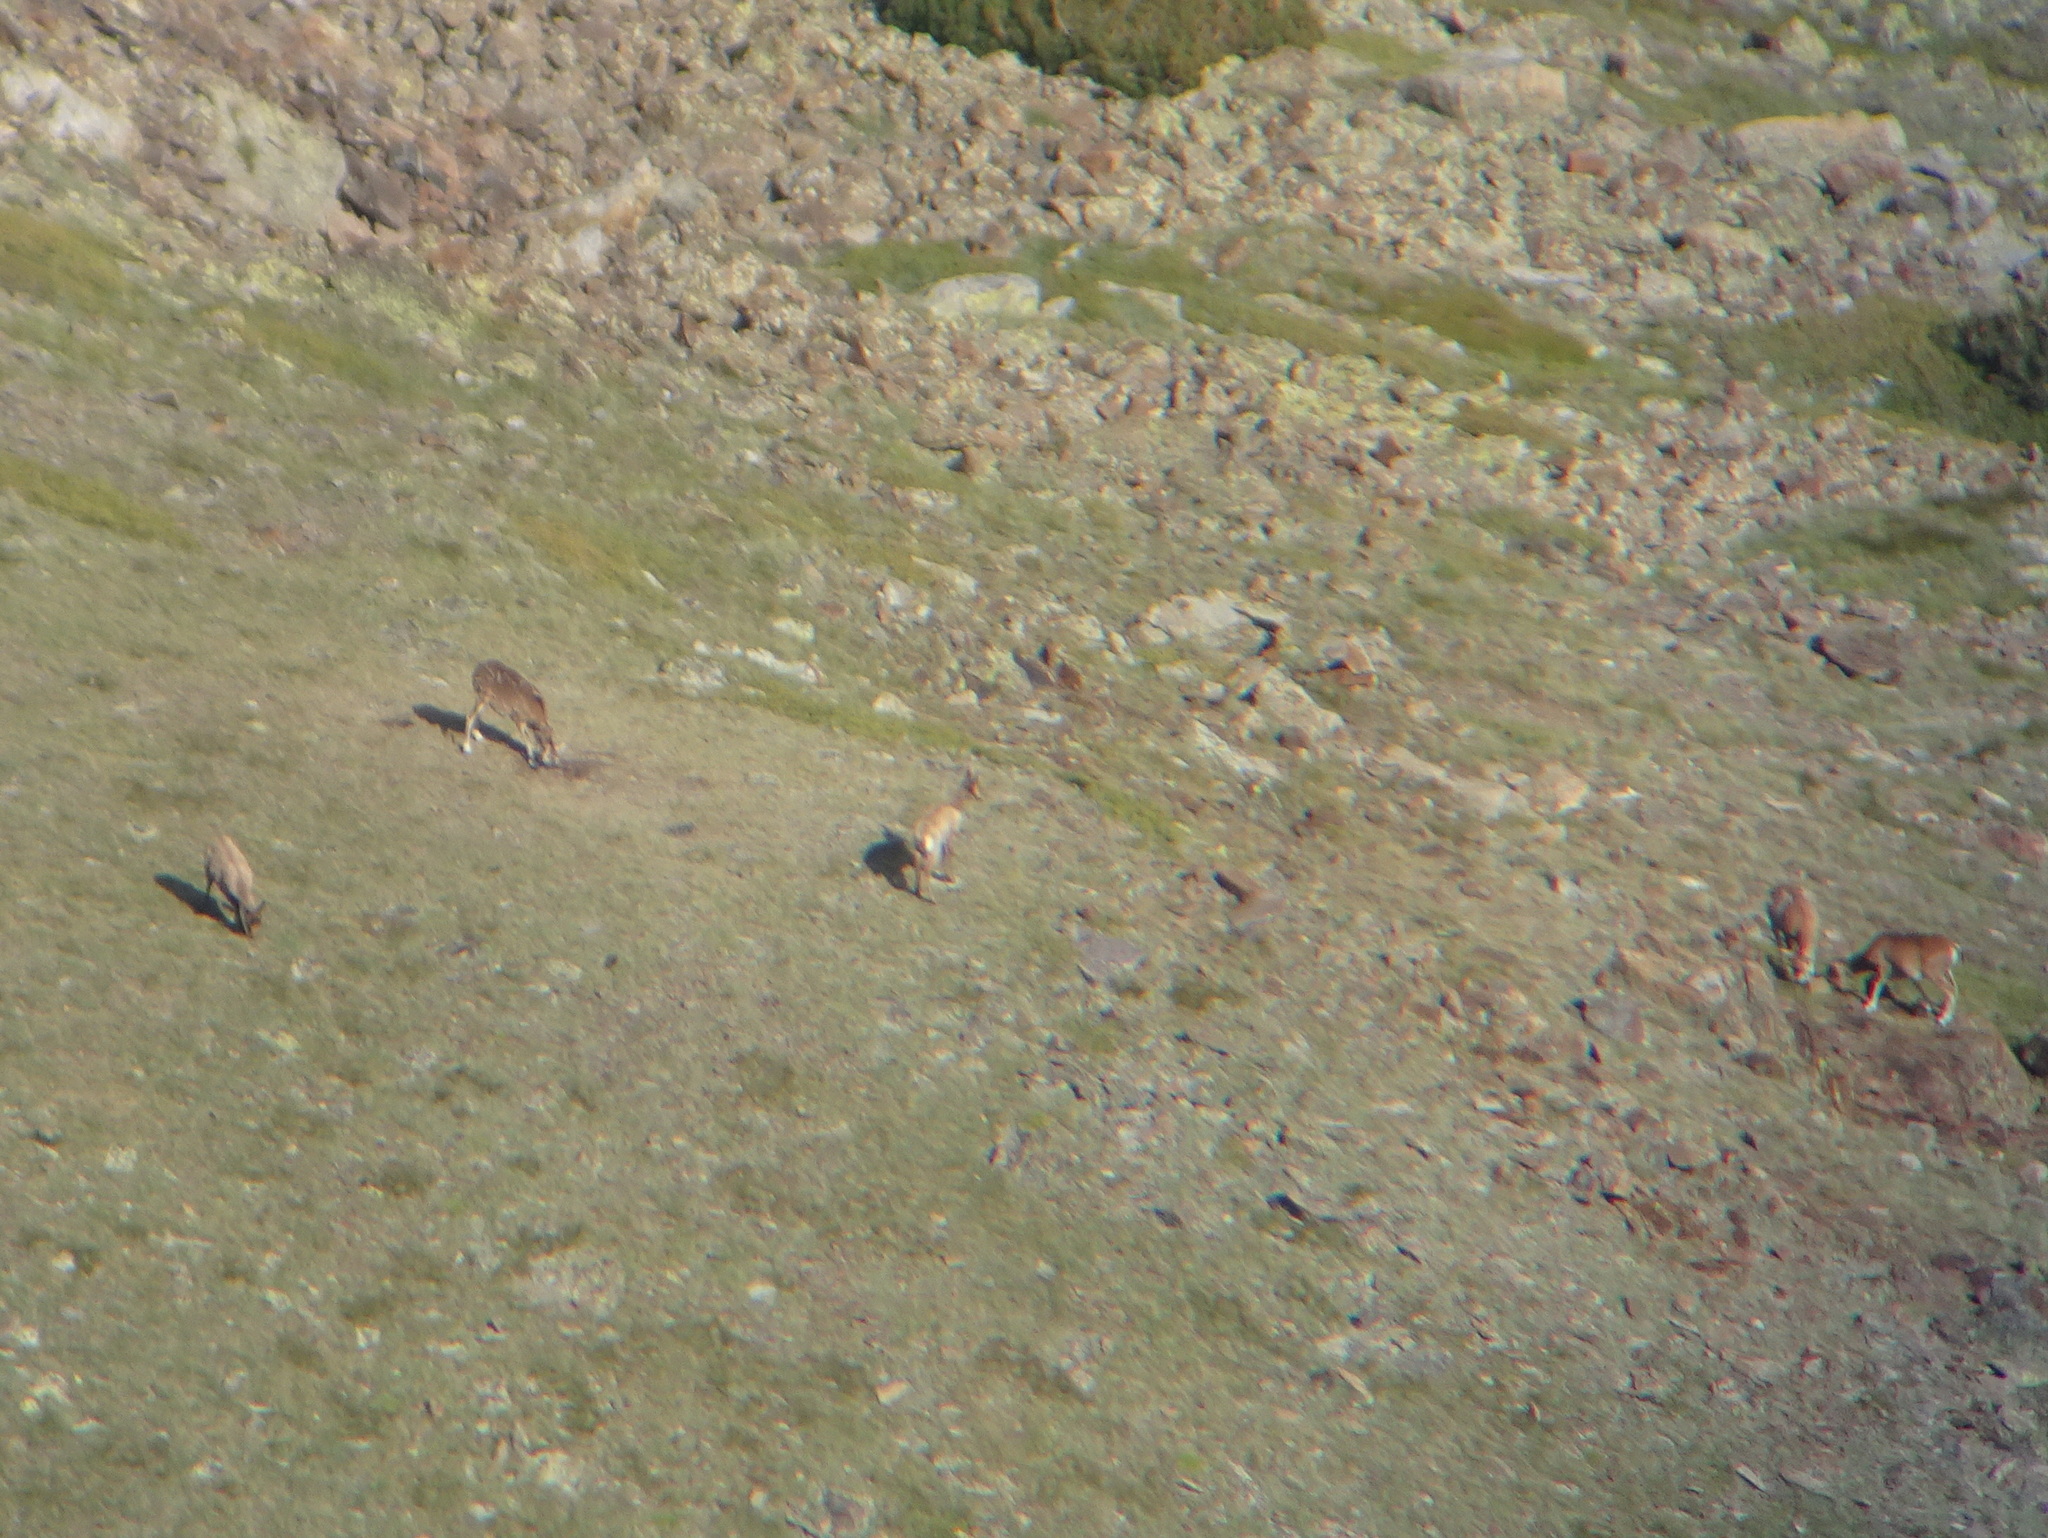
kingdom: Animalia
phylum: Chordata
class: Mammalia
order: Artiodactyla
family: Bovidae
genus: Rupicapra
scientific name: Rupicapra pyrenaica
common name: Pyrenean chamois
